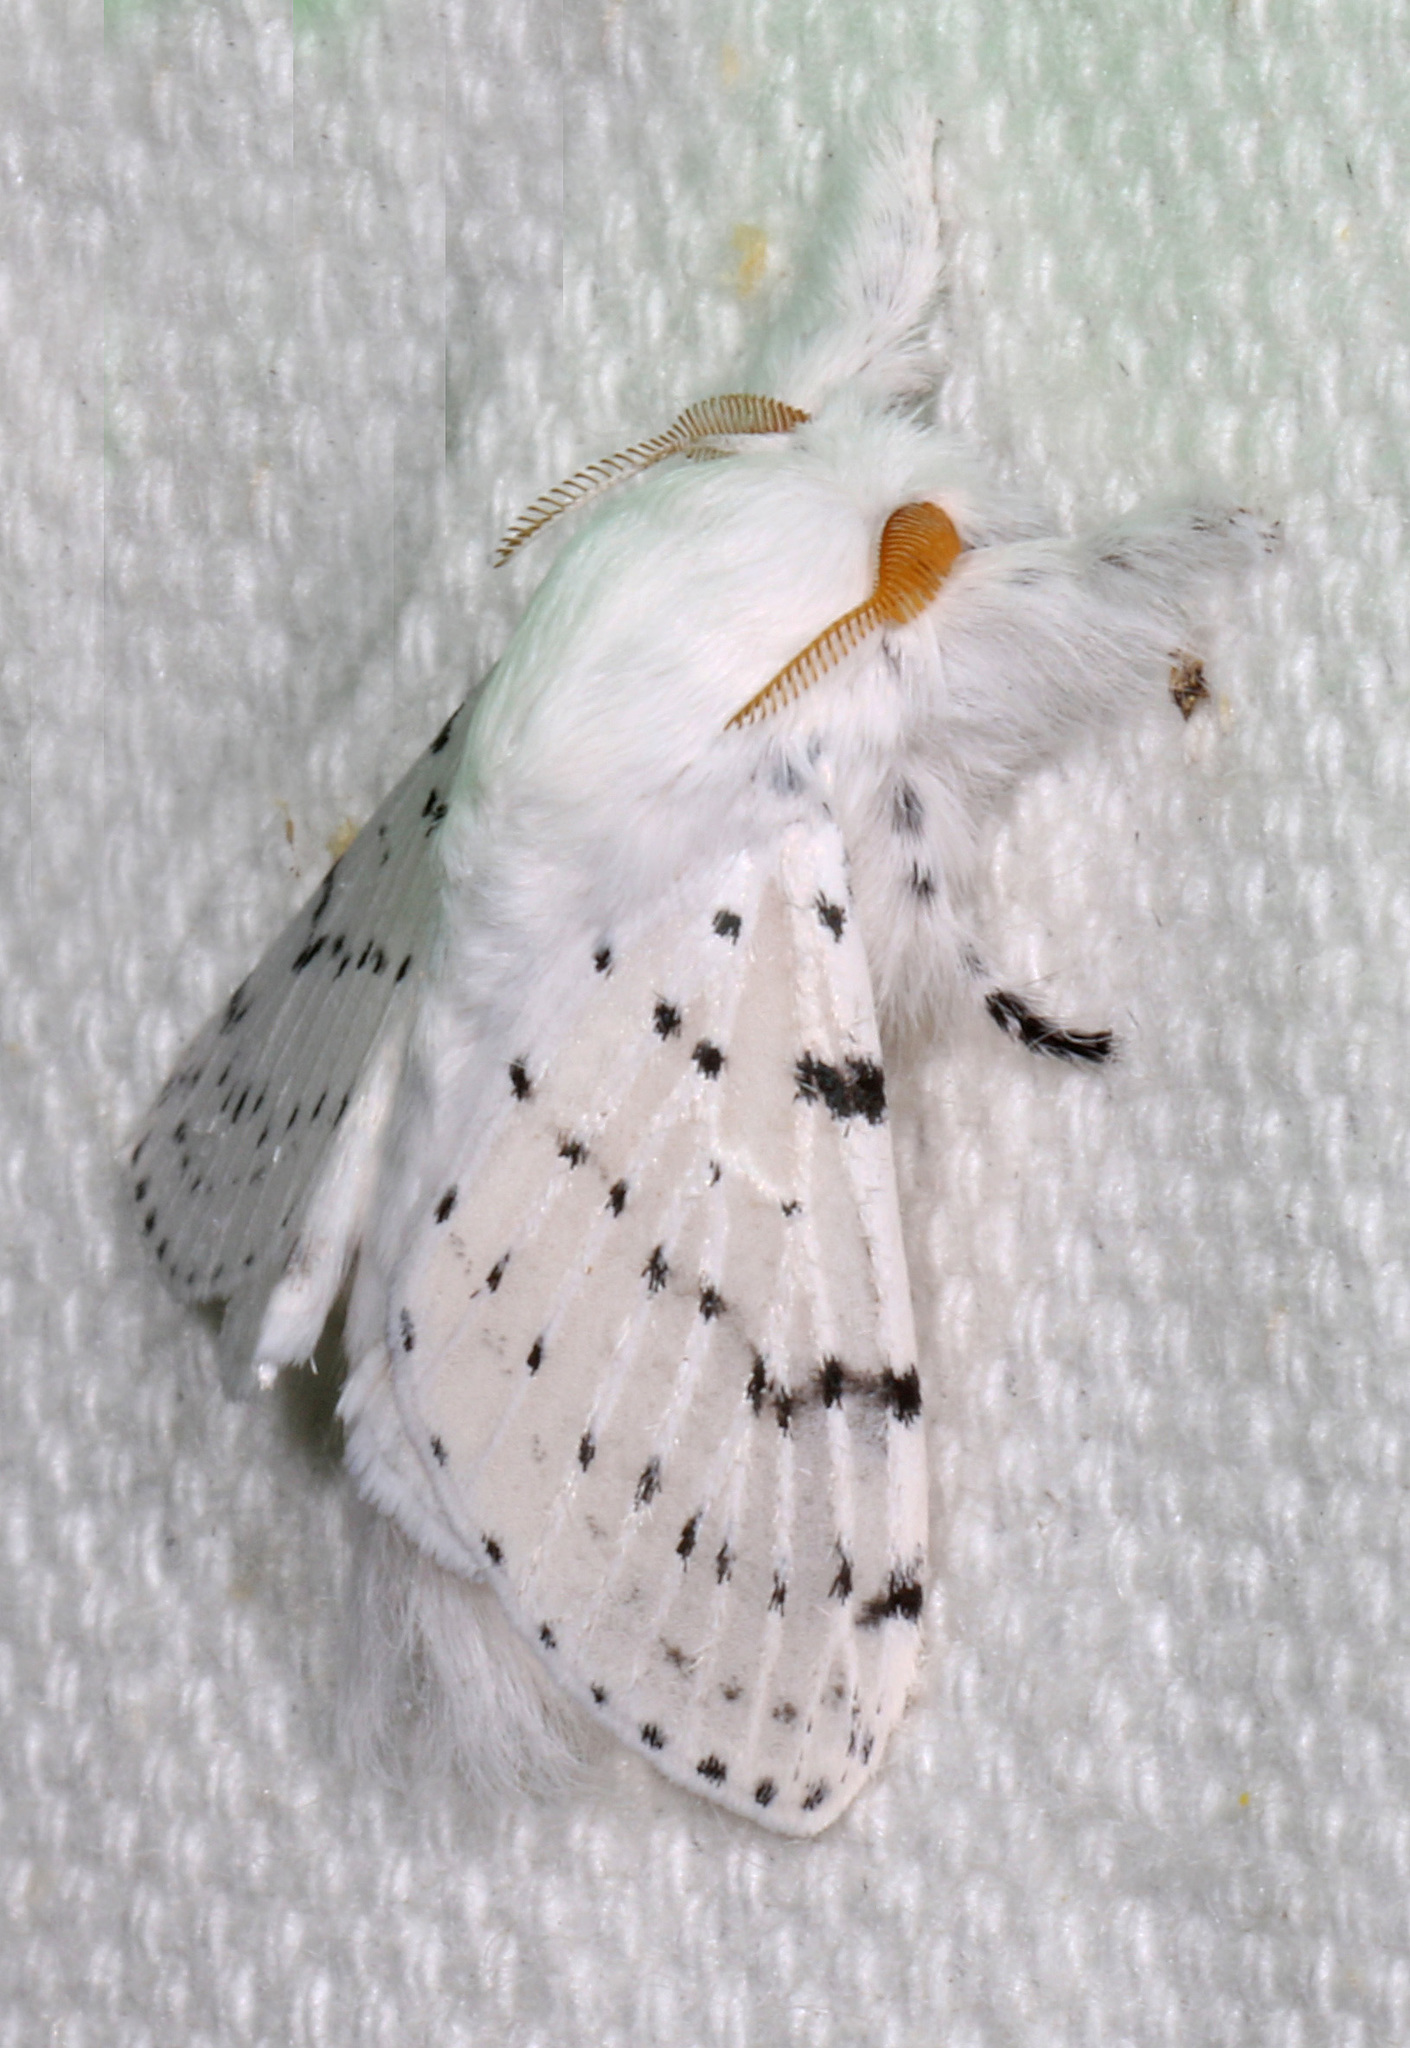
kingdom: Animalia
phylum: Arthropoda
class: Insecta
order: Lepidoptera
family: Lasiocampidae
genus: Artace
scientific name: Artace cribrarius
